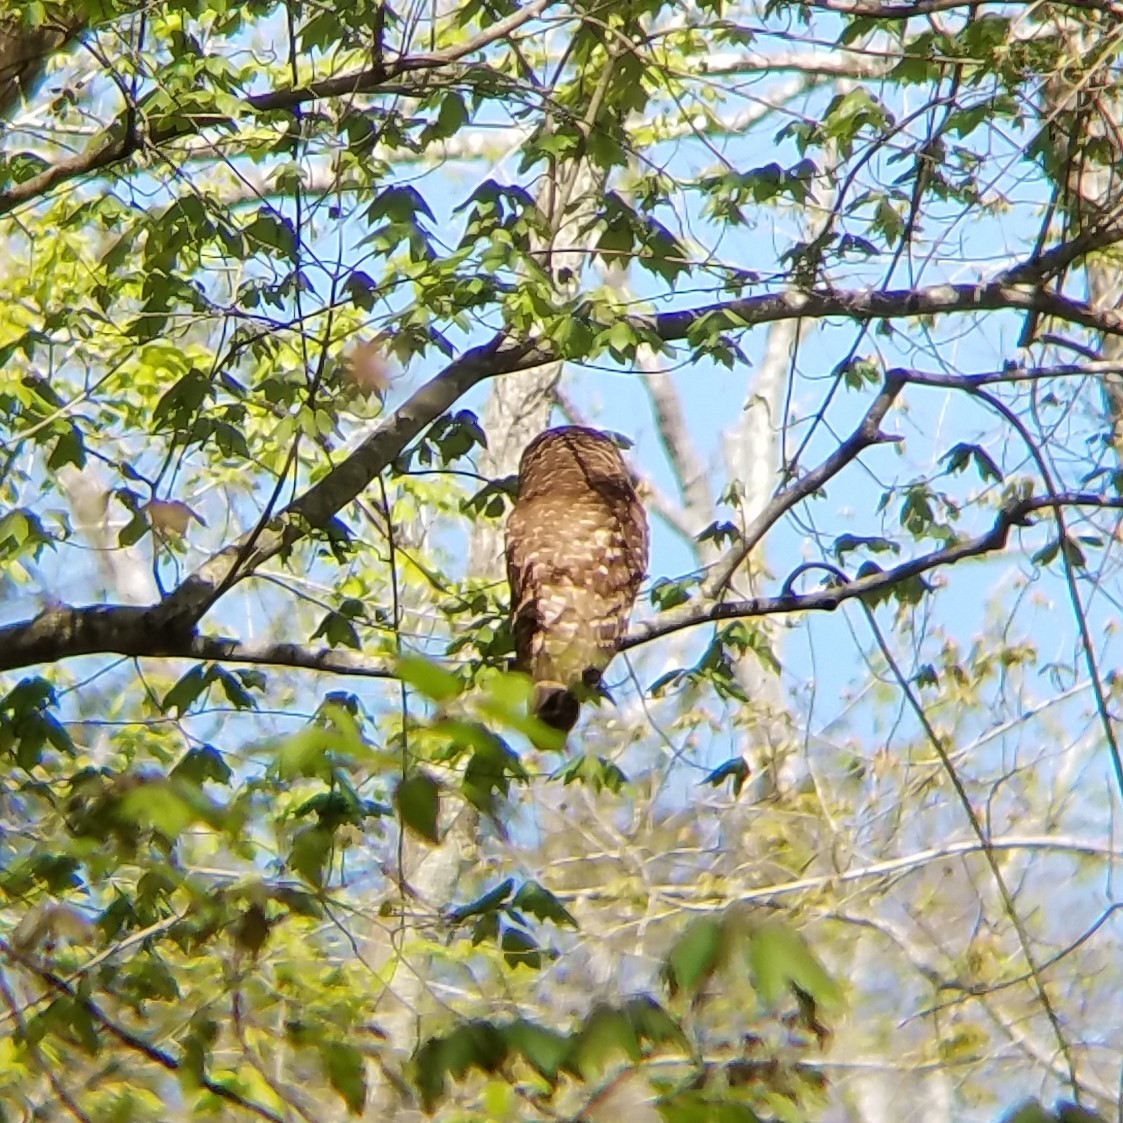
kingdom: Animalia
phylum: Chordata
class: Aves
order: Strigiformes
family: Strigidae
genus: Strix
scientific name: Strix varia
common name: Barred owl
